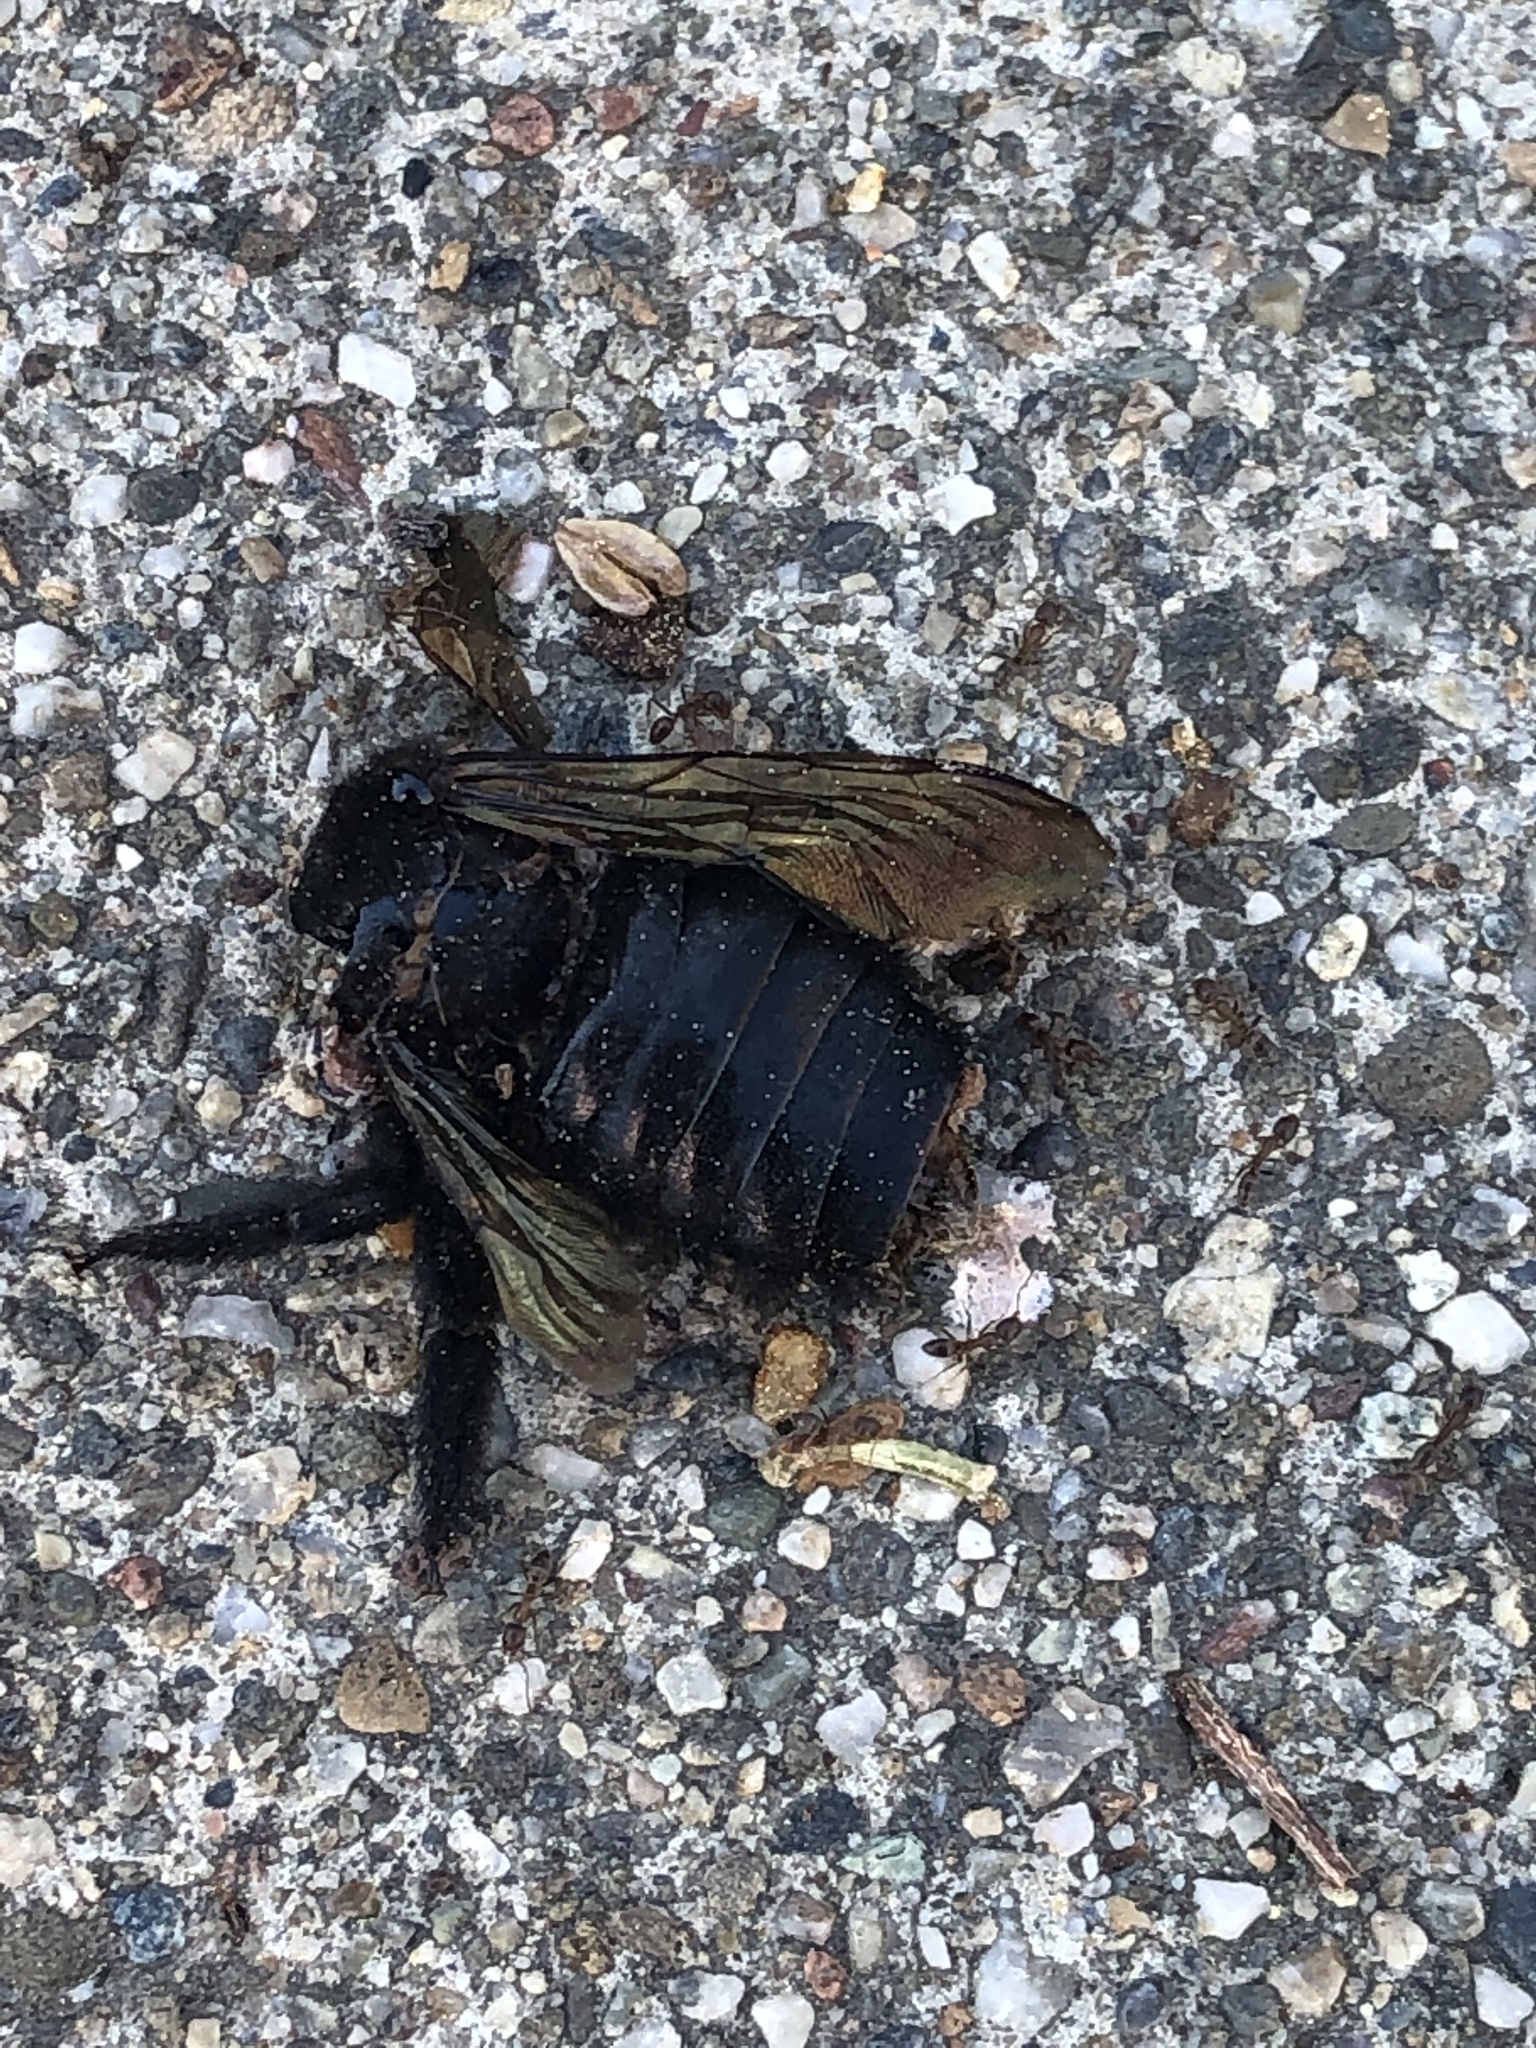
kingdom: Animalia
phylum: Arthropoda
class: Insecta
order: Hymenoptera
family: Apidae
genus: Xylocopa
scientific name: Xylocopa sonorina
